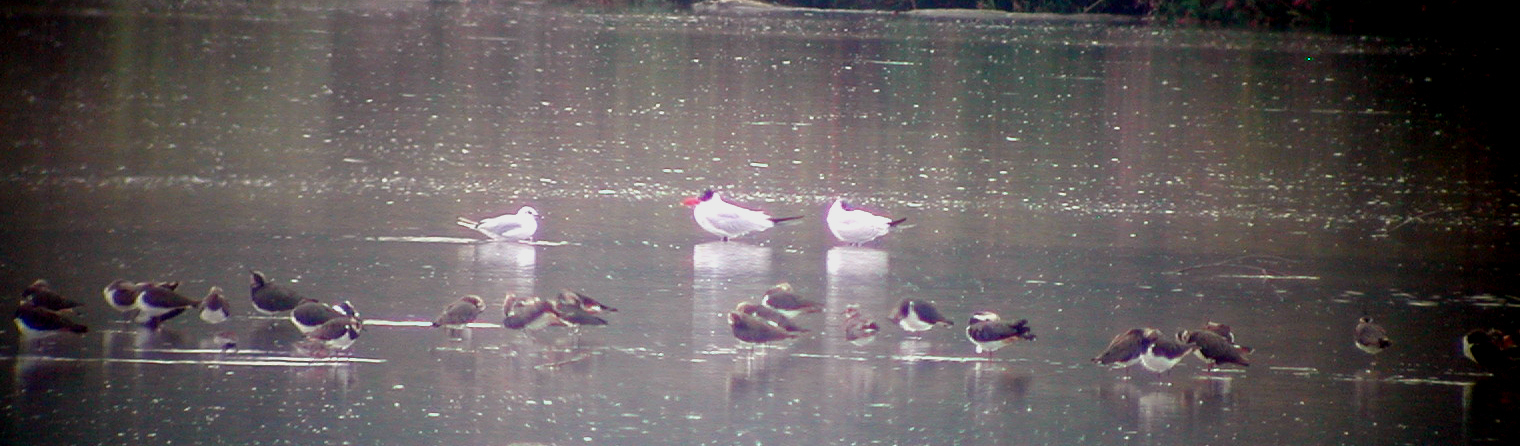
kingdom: Animalia
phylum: Chordata
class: Aves
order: Charadriiformes
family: Laridae
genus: Hydroprogne
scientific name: Hydroprogne caspia
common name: Caspian tern
